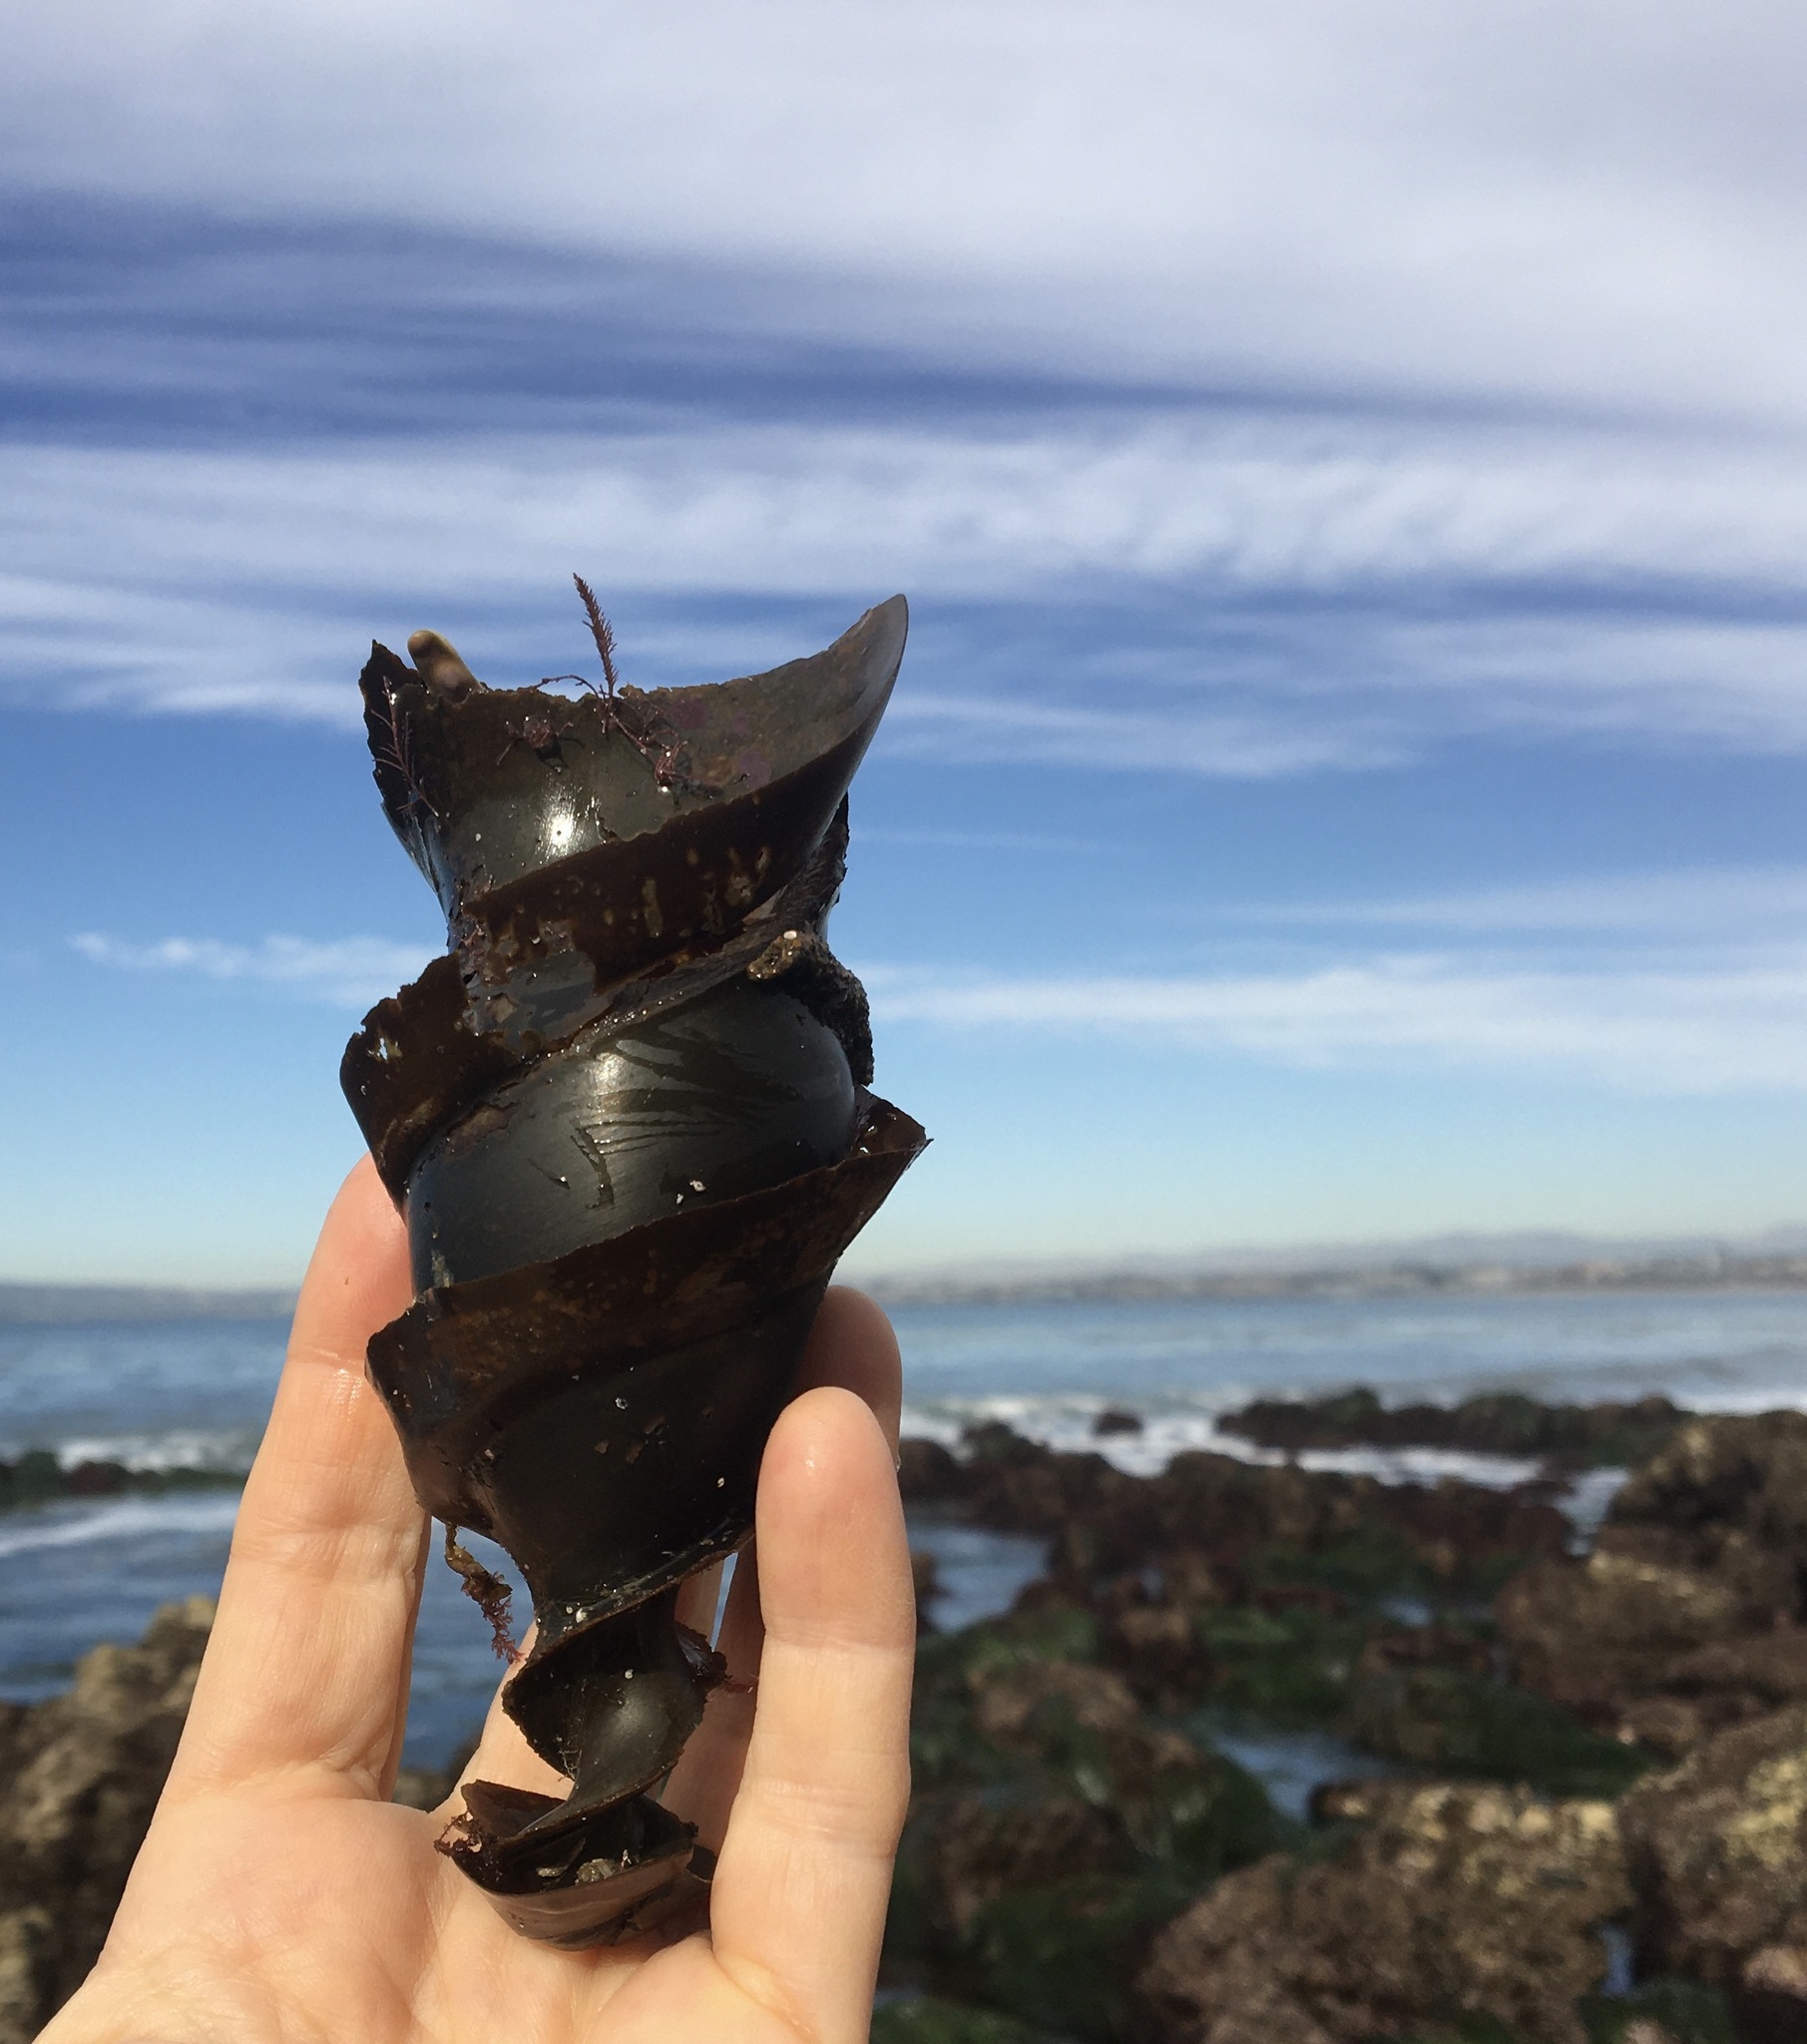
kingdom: Animalia
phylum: Chordata
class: Elasmobranchii
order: Heterodontiformes
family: Heterodontidae
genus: Heterodontus
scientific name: Heterodontus francisci
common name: Horn shark
